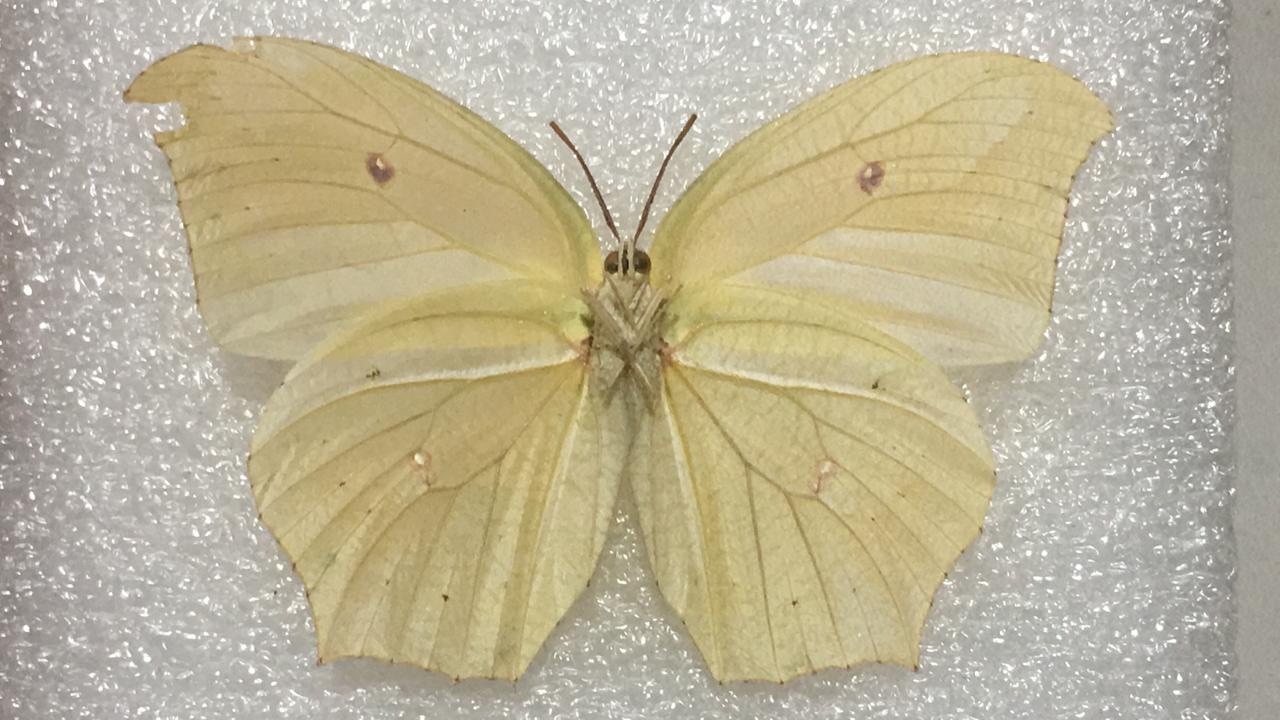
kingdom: Animalia
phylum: Arthropoda
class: Insecta
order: Lepidoptera
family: Pieridae
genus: Anteos
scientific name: Anteos maerula
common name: Angled sulphur
